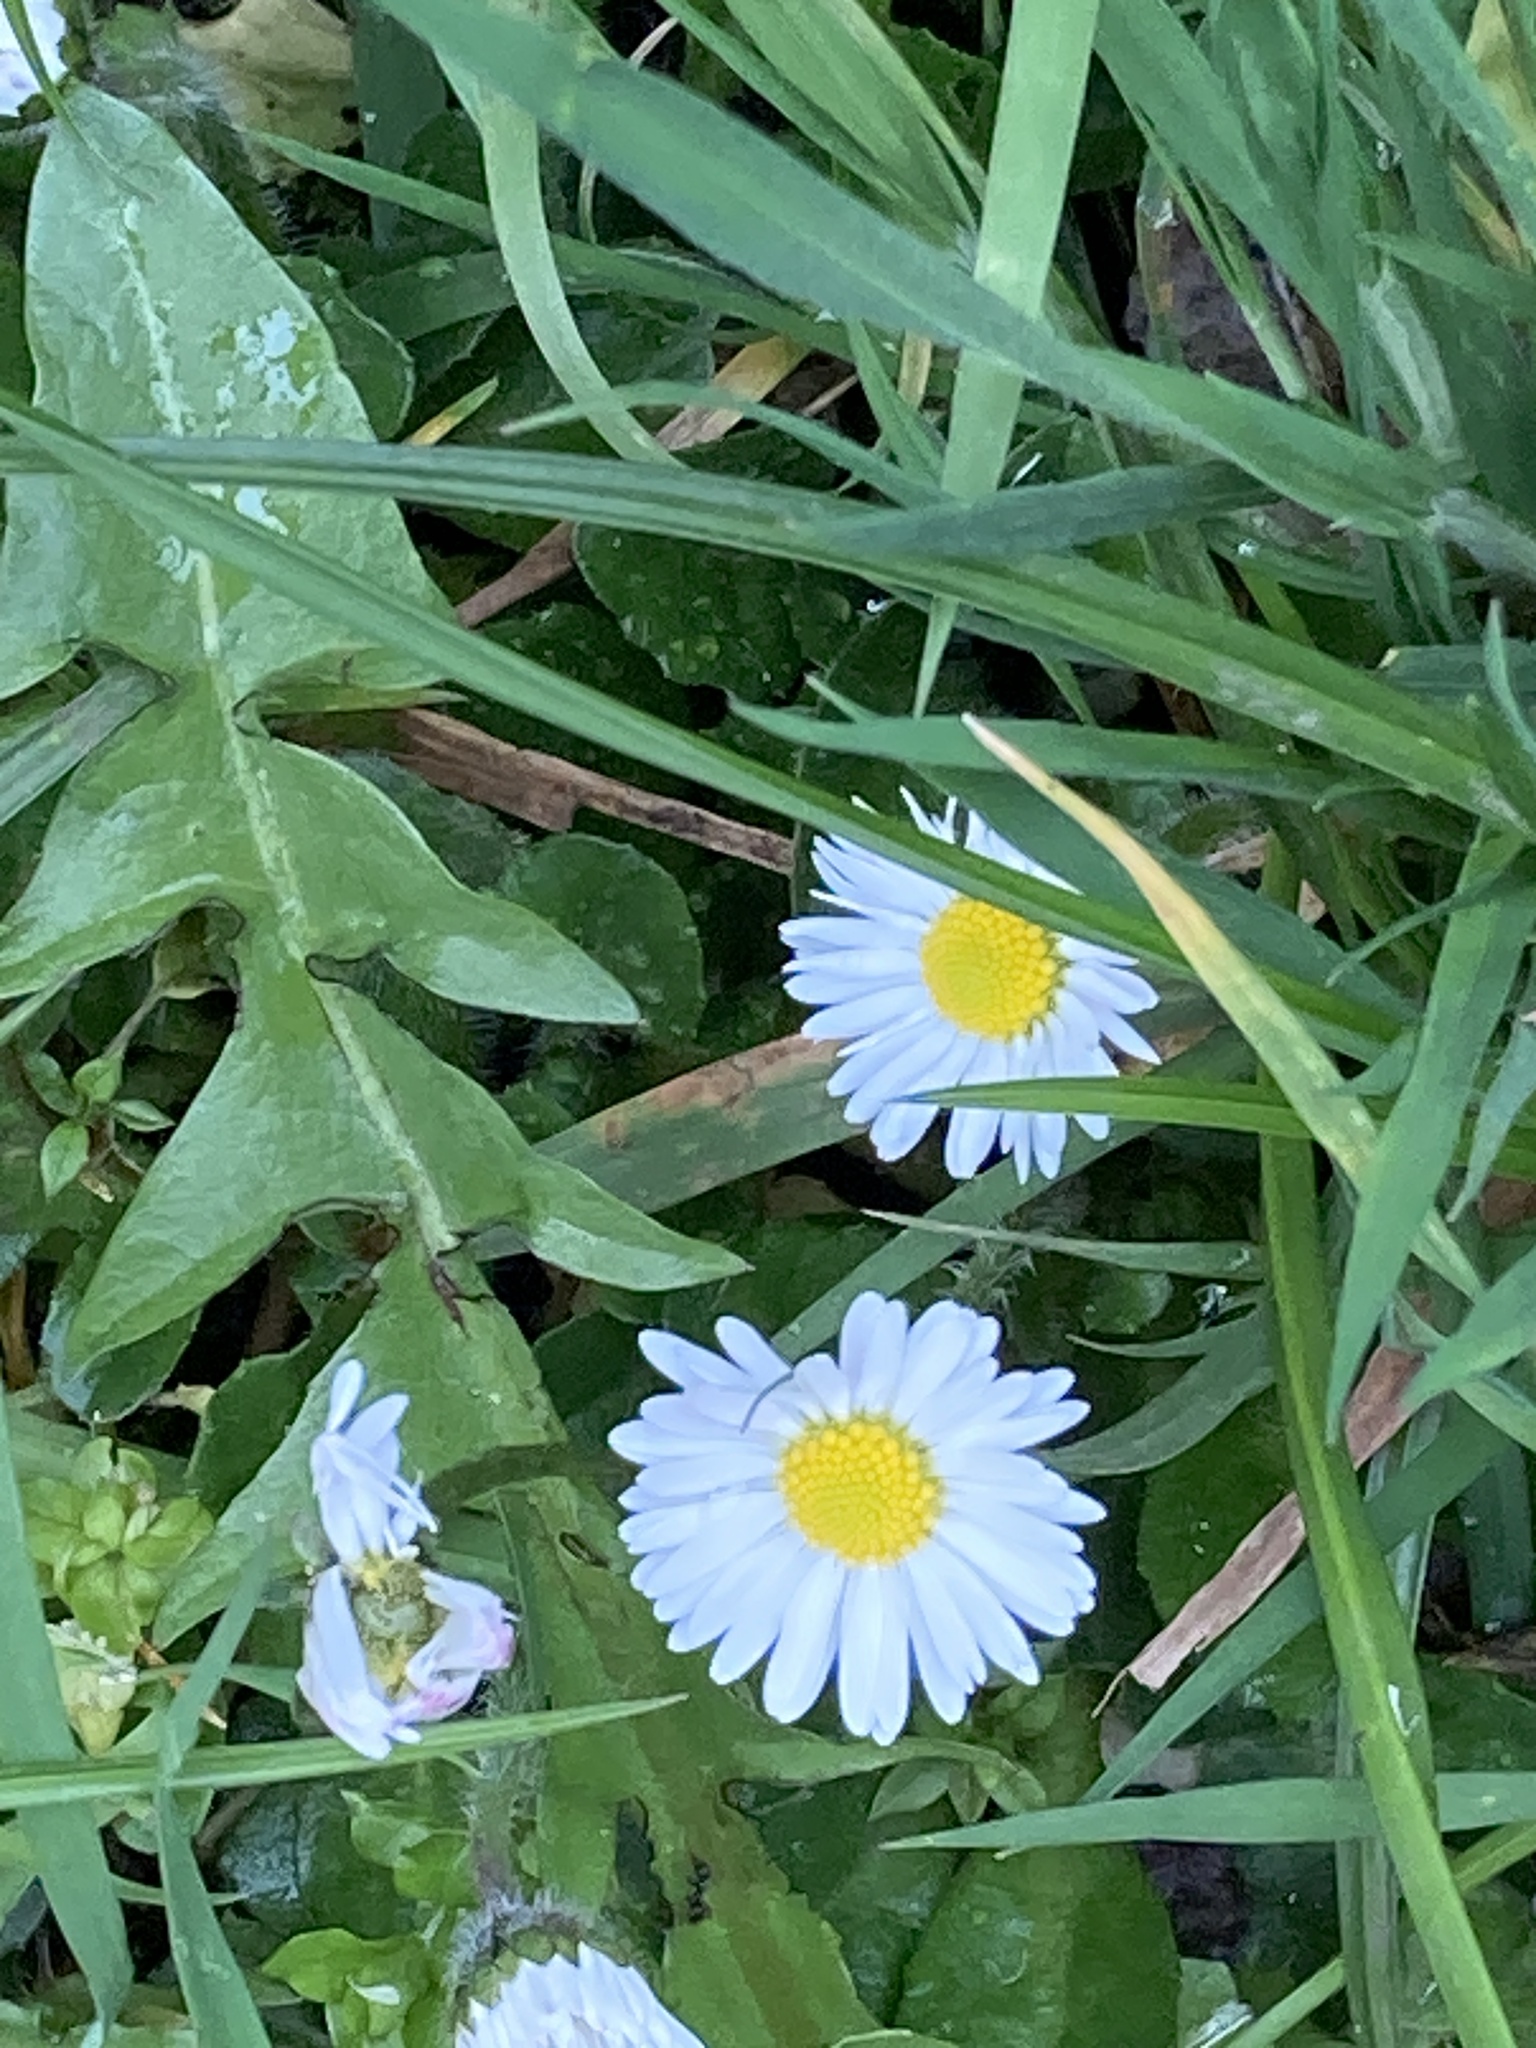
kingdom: Plantae
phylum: Tracheophyta
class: Magnoliopsida
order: Asterales
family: Asteraceae
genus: Bellis
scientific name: Bellis perennis
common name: Lawndaisy
